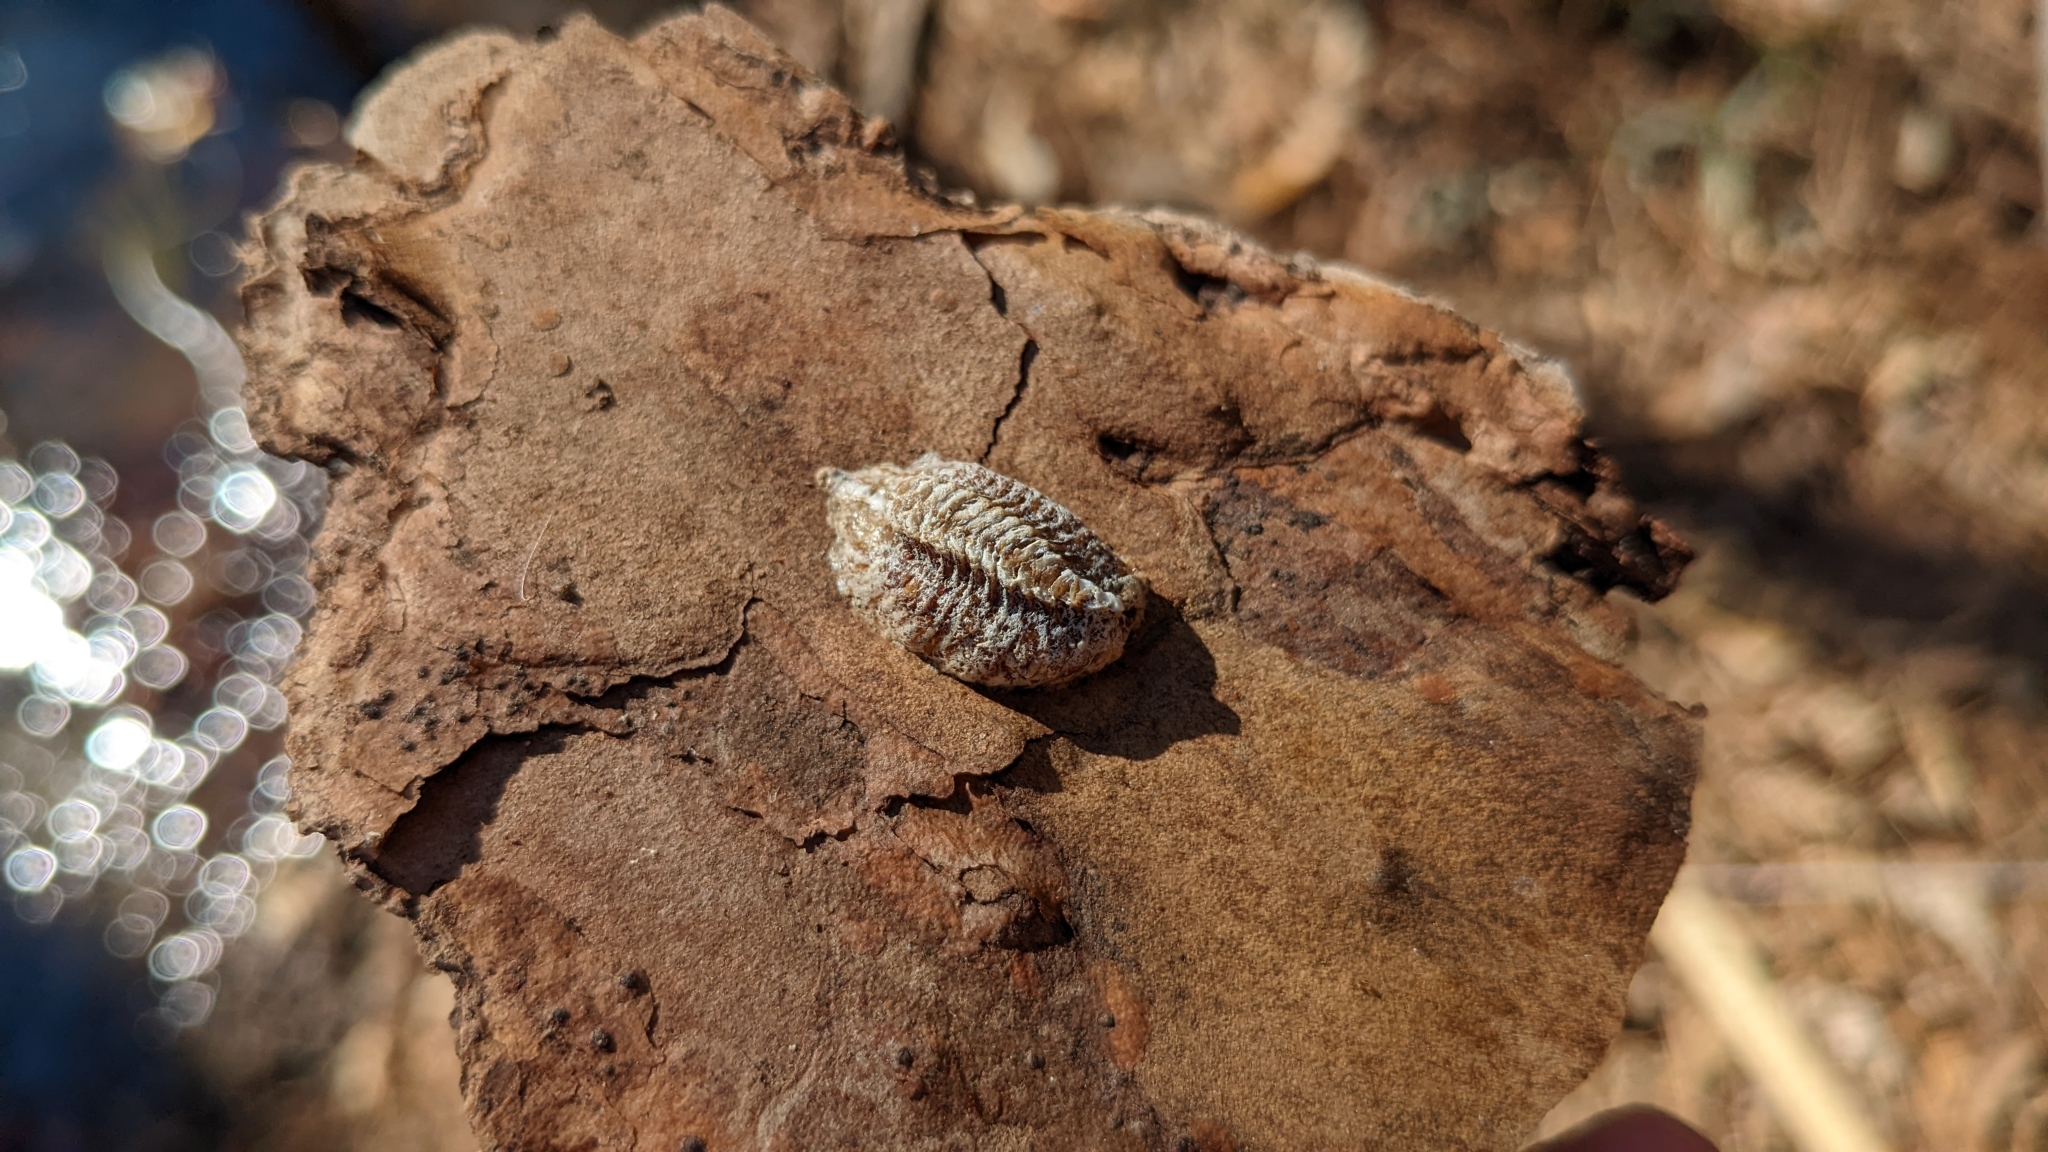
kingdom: Animalia
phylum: Arthropoda
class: Insecta
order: Mantodea
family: Mantidae
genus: Stagmomantis
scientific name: Stagmomantis carolina
